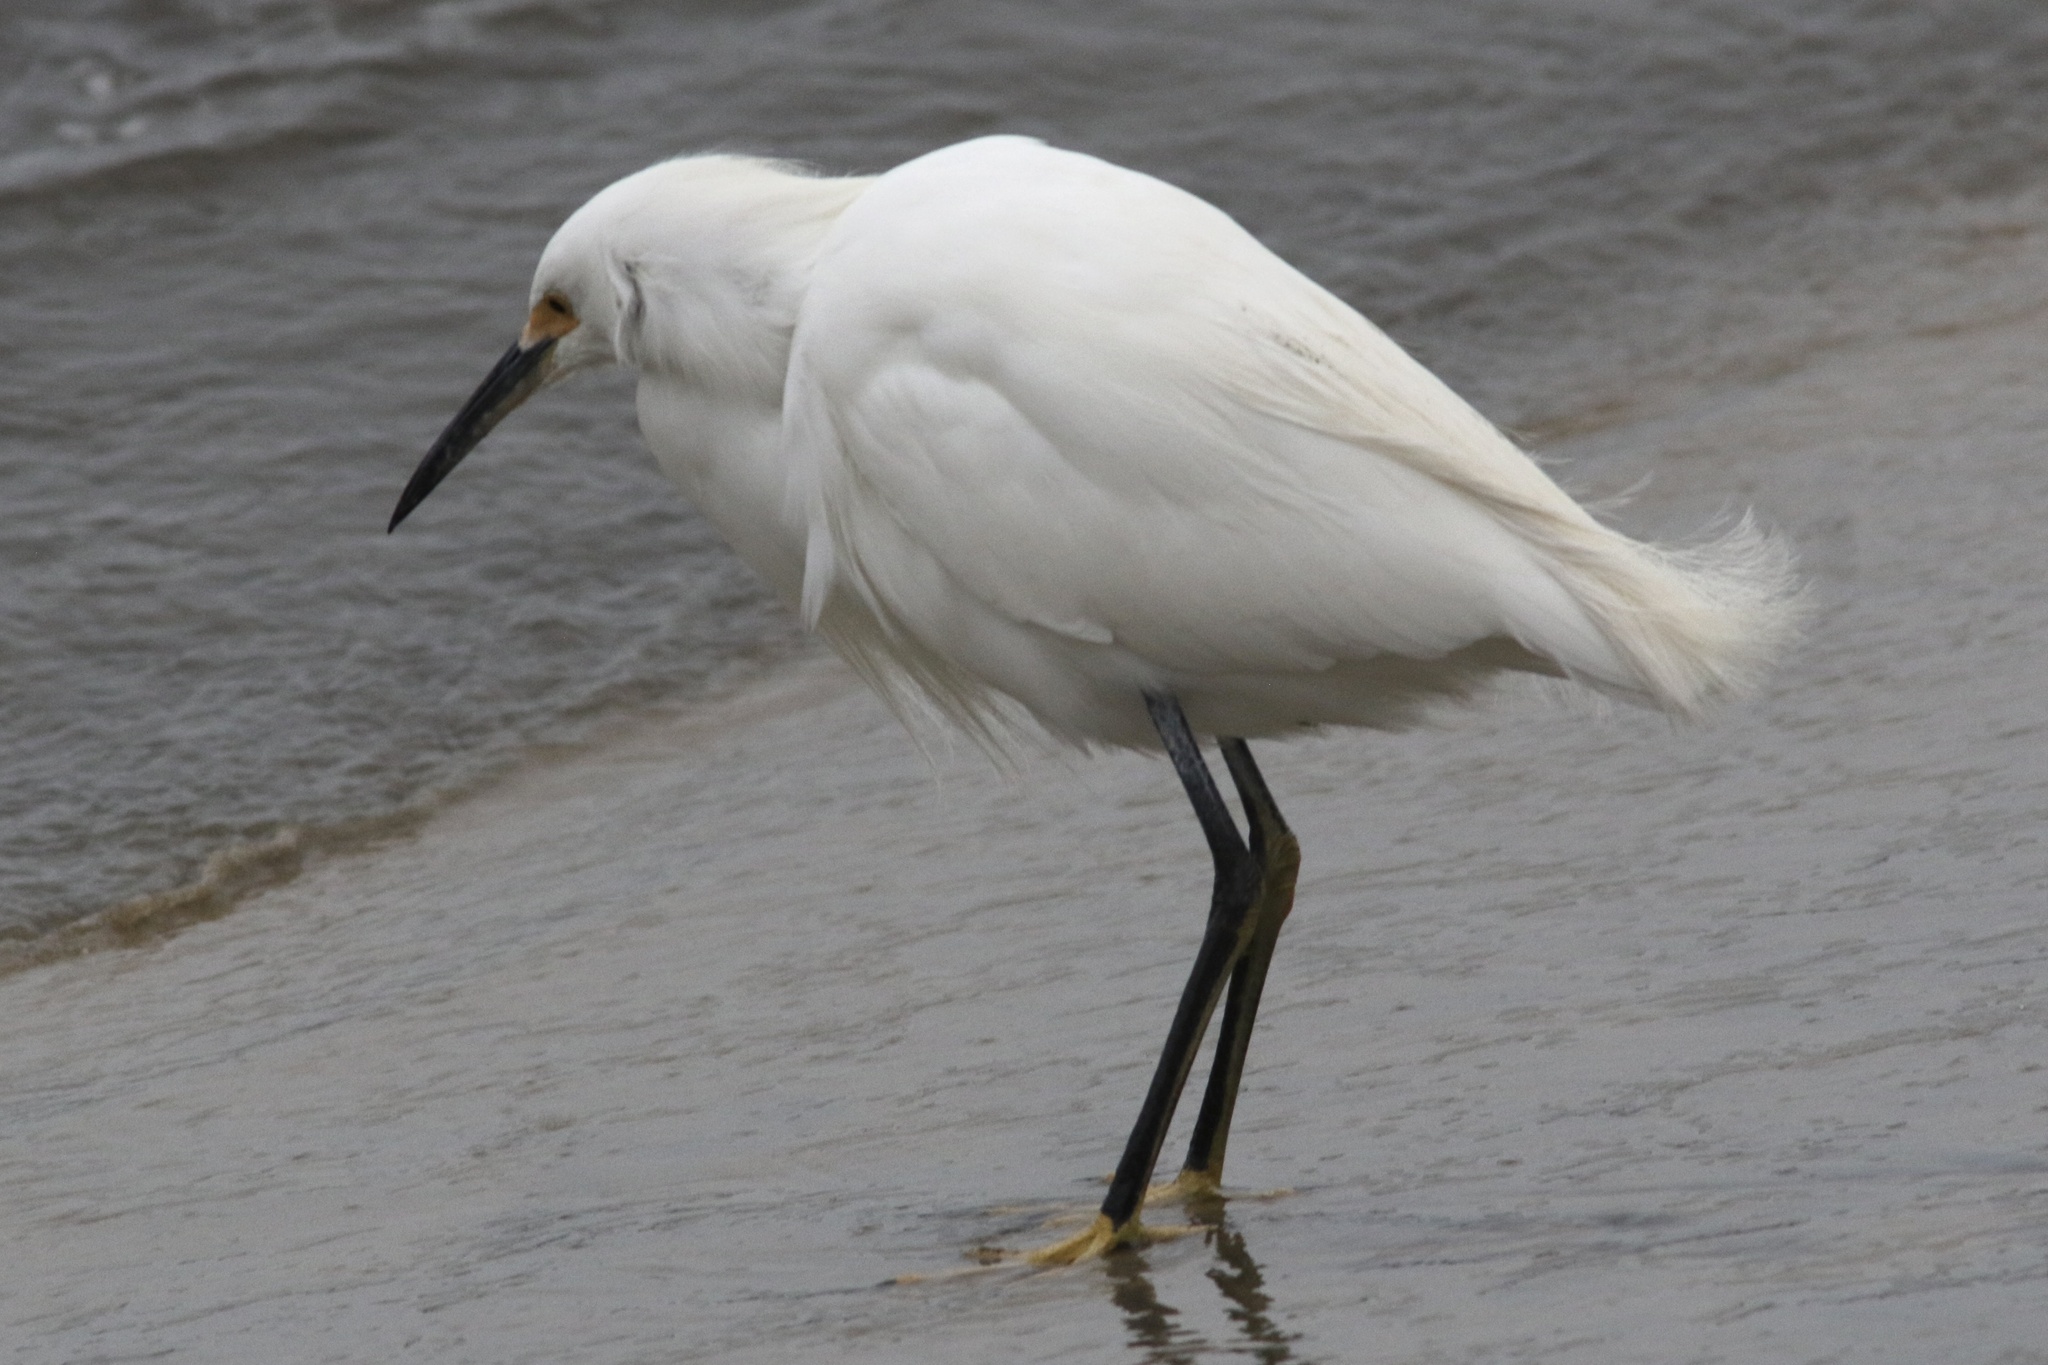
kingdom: Animalia
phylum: Chordata
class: Aves
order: Pelecaniformes
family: Ardeidae
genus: Egretta
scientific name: Egretta thula
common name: Snowy egret
